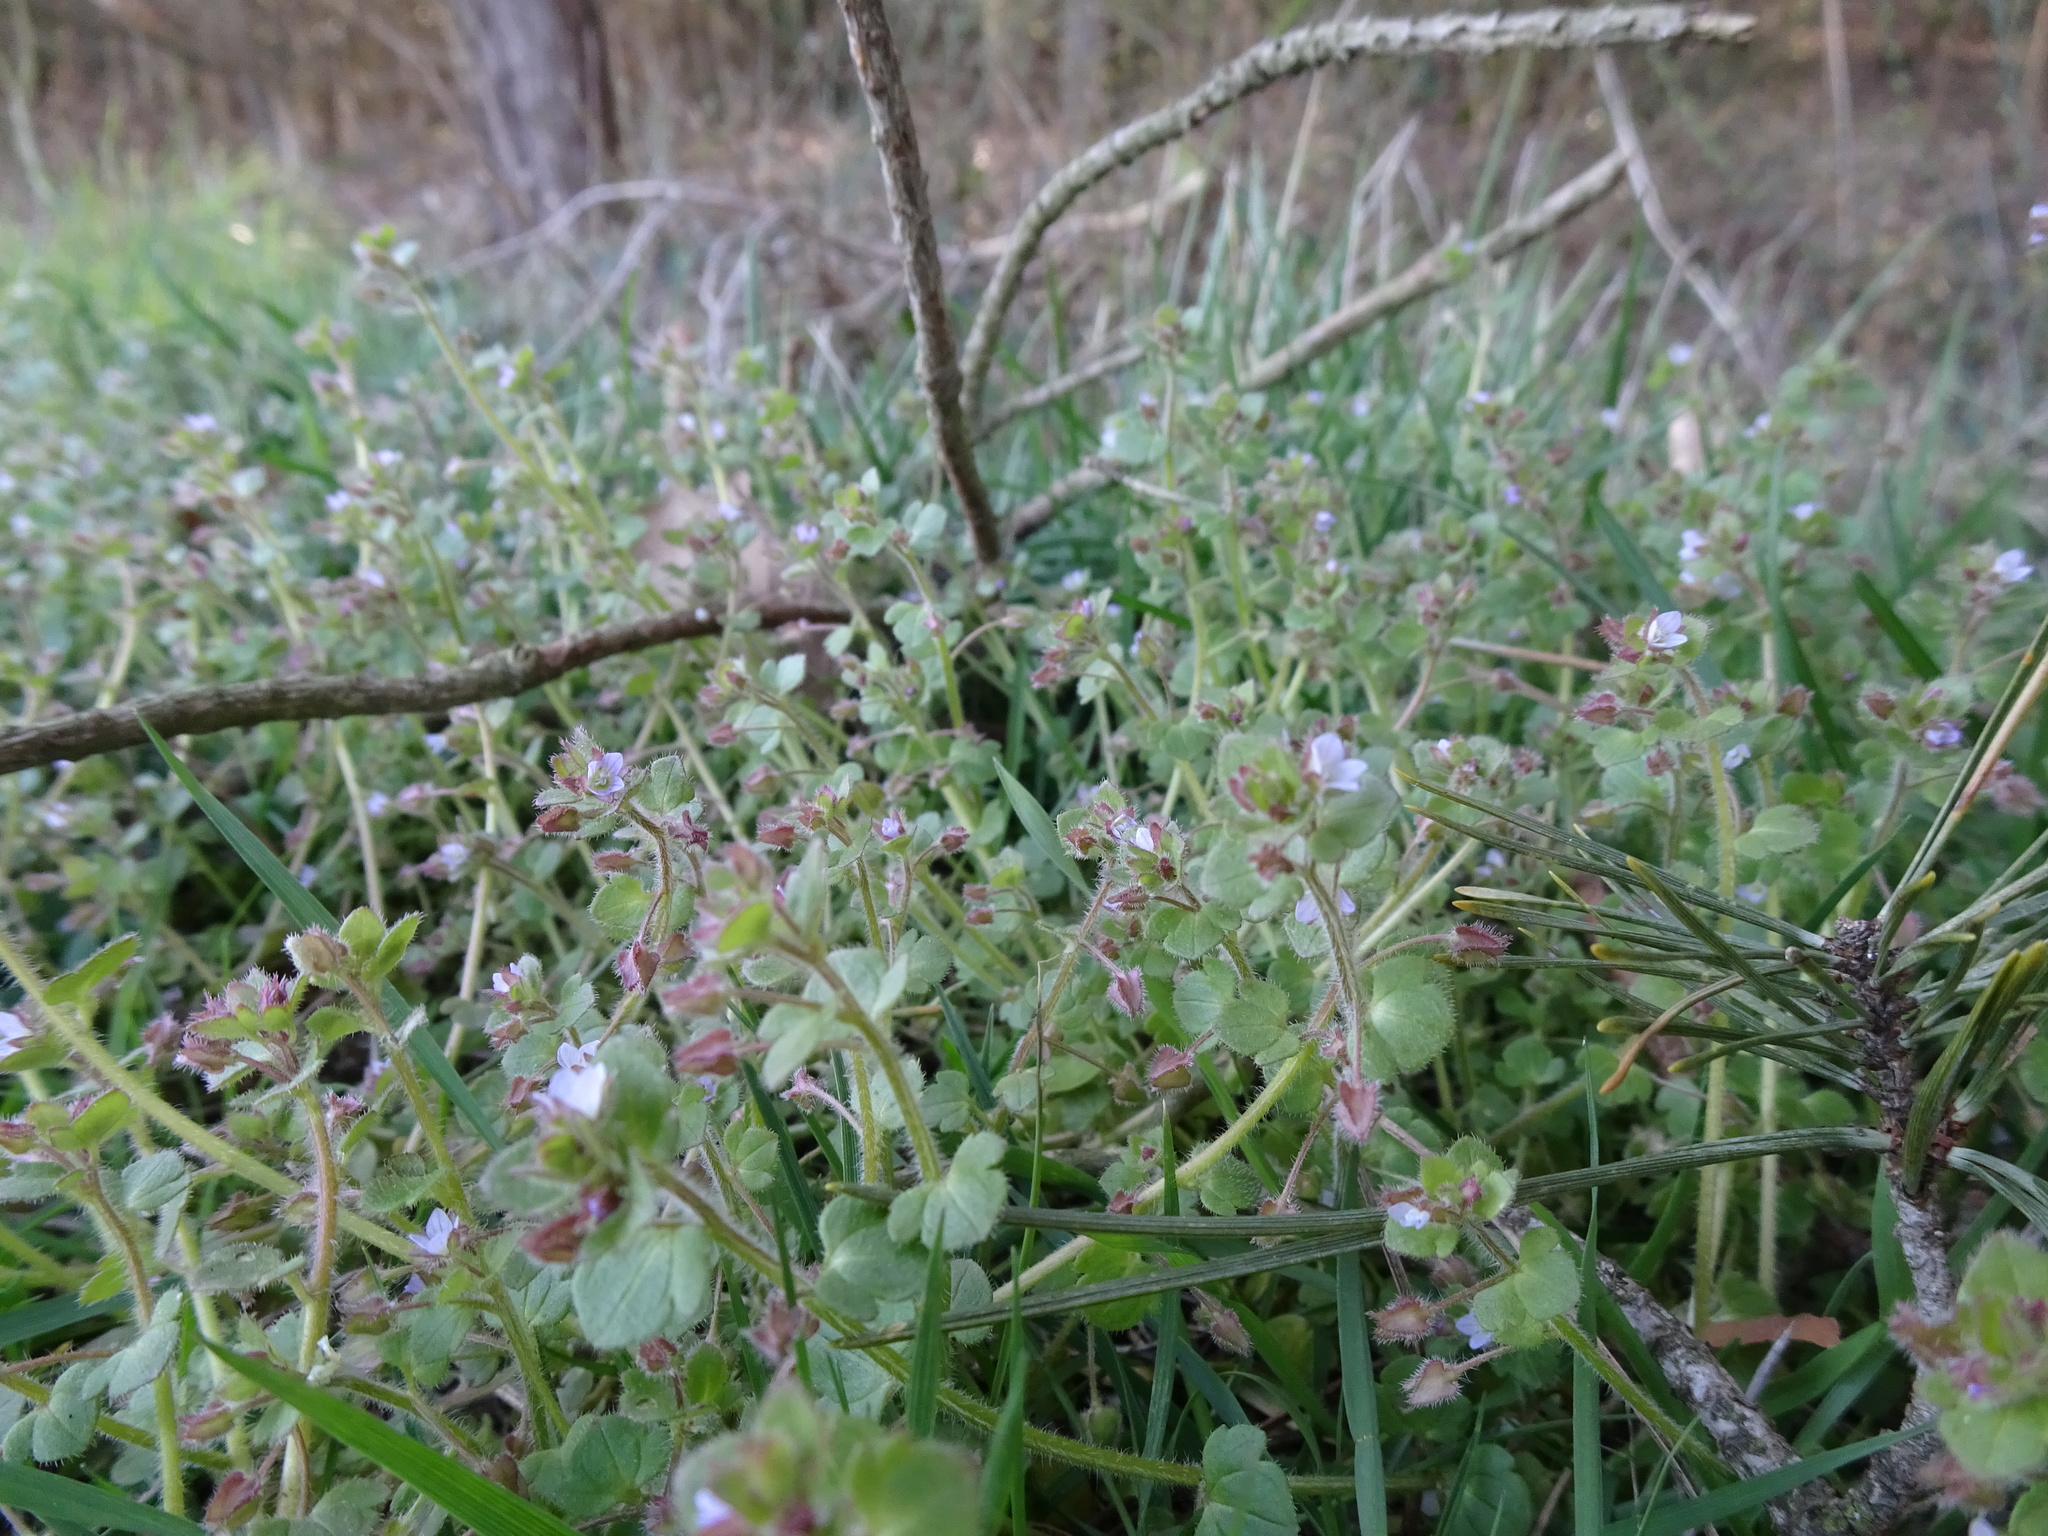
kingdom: Plantae
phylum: Tracheophyta
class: Magnoliopsida
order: Lamiales
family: Plantaginaceae
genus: Veronica
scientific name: Veronica sublobata
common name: False ivy-leaved speedwell
